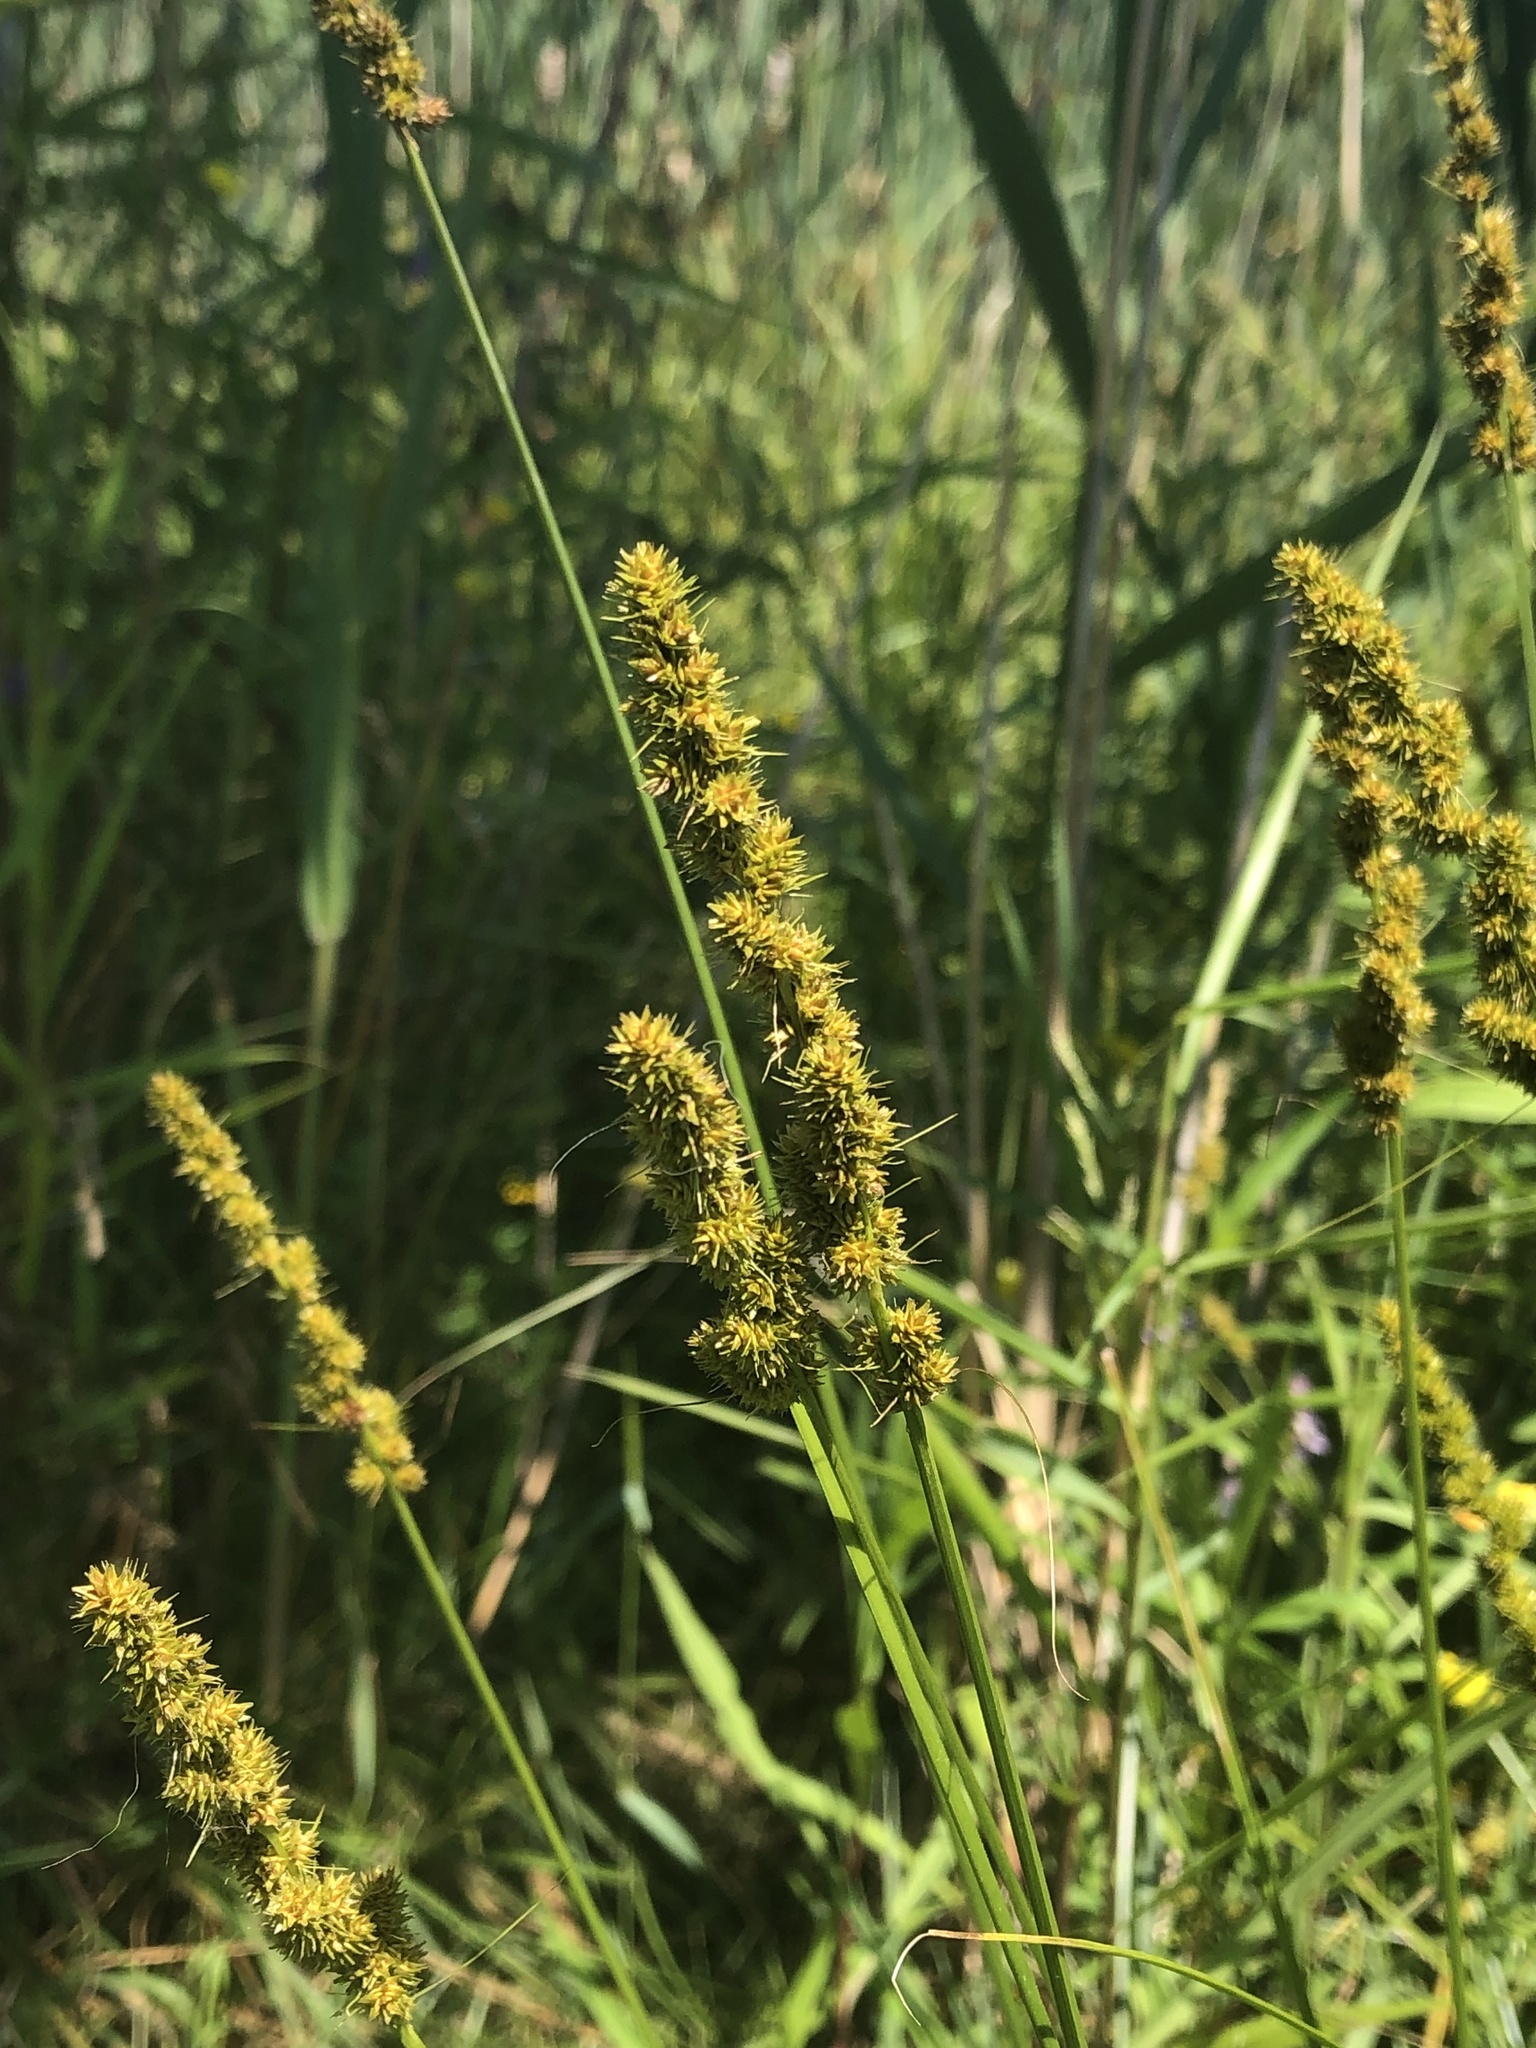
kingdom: Plantae
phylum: Tracheophyta
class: Liliopsida
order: Poales
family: Cyperaceae
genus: Carex
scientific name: Carex vulpinoidea
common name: American fox-sedge
